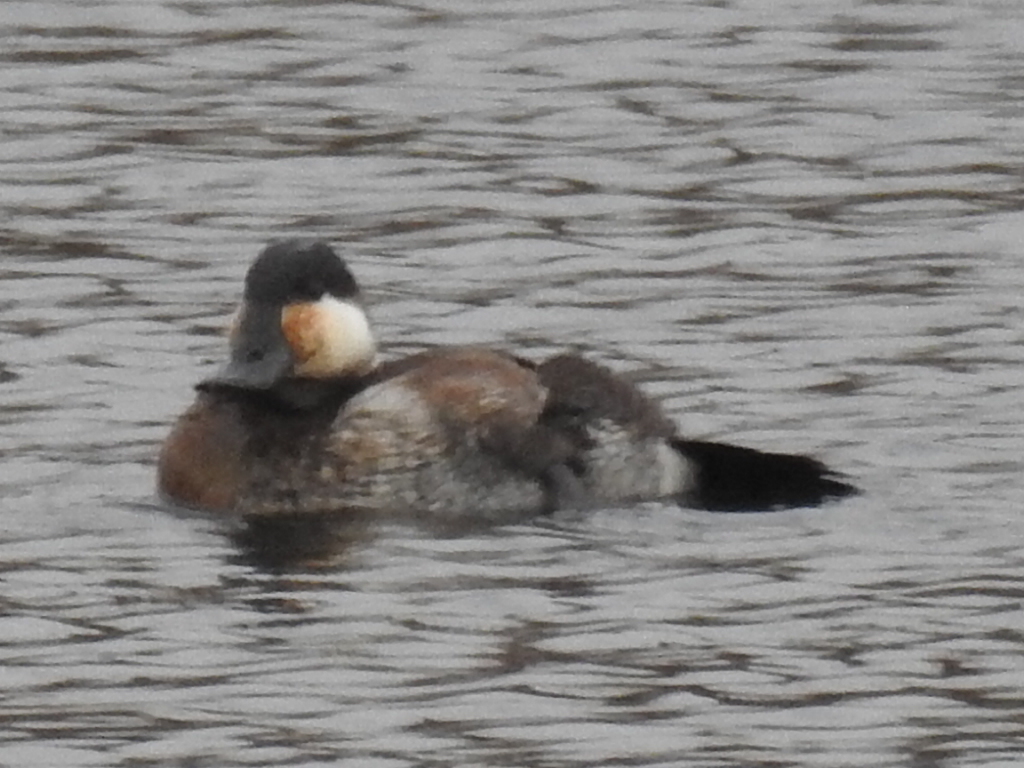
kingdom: Animalia
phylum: Chordata
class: Aves
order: Anseriformes
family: Anatidae
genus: Oxyura
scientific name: Oxyura jamaicensis
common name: Ruddy duck
